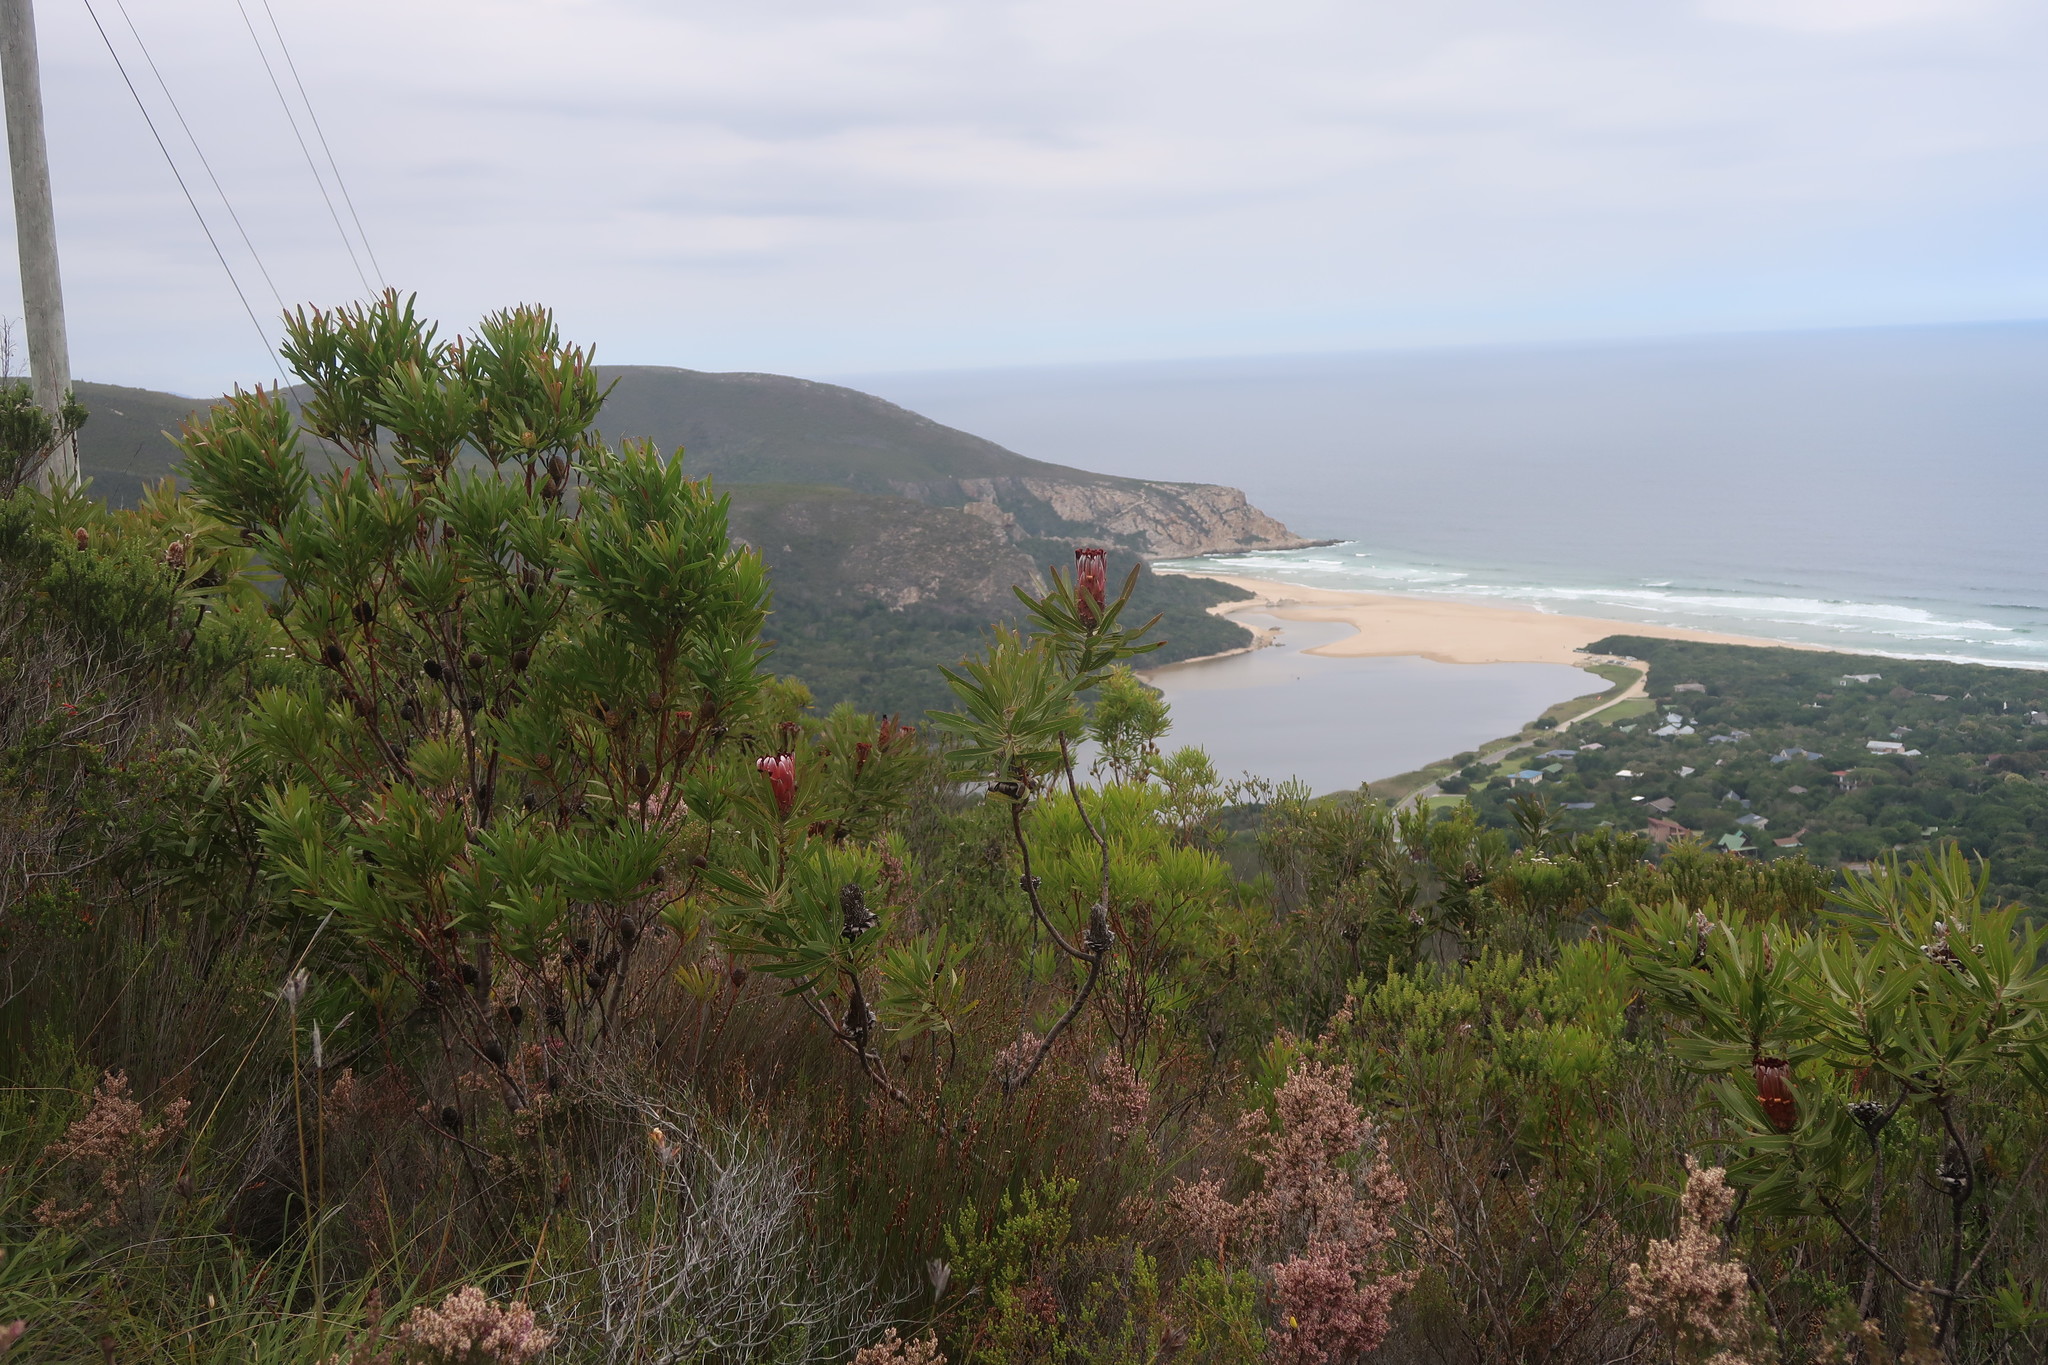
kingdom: Plantae
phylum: Tracheophyta
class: Magnoliopsida
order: Proteales
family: Proteaceae
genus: Protea
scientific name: Protea neriifolia
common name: Blue sugarbush
